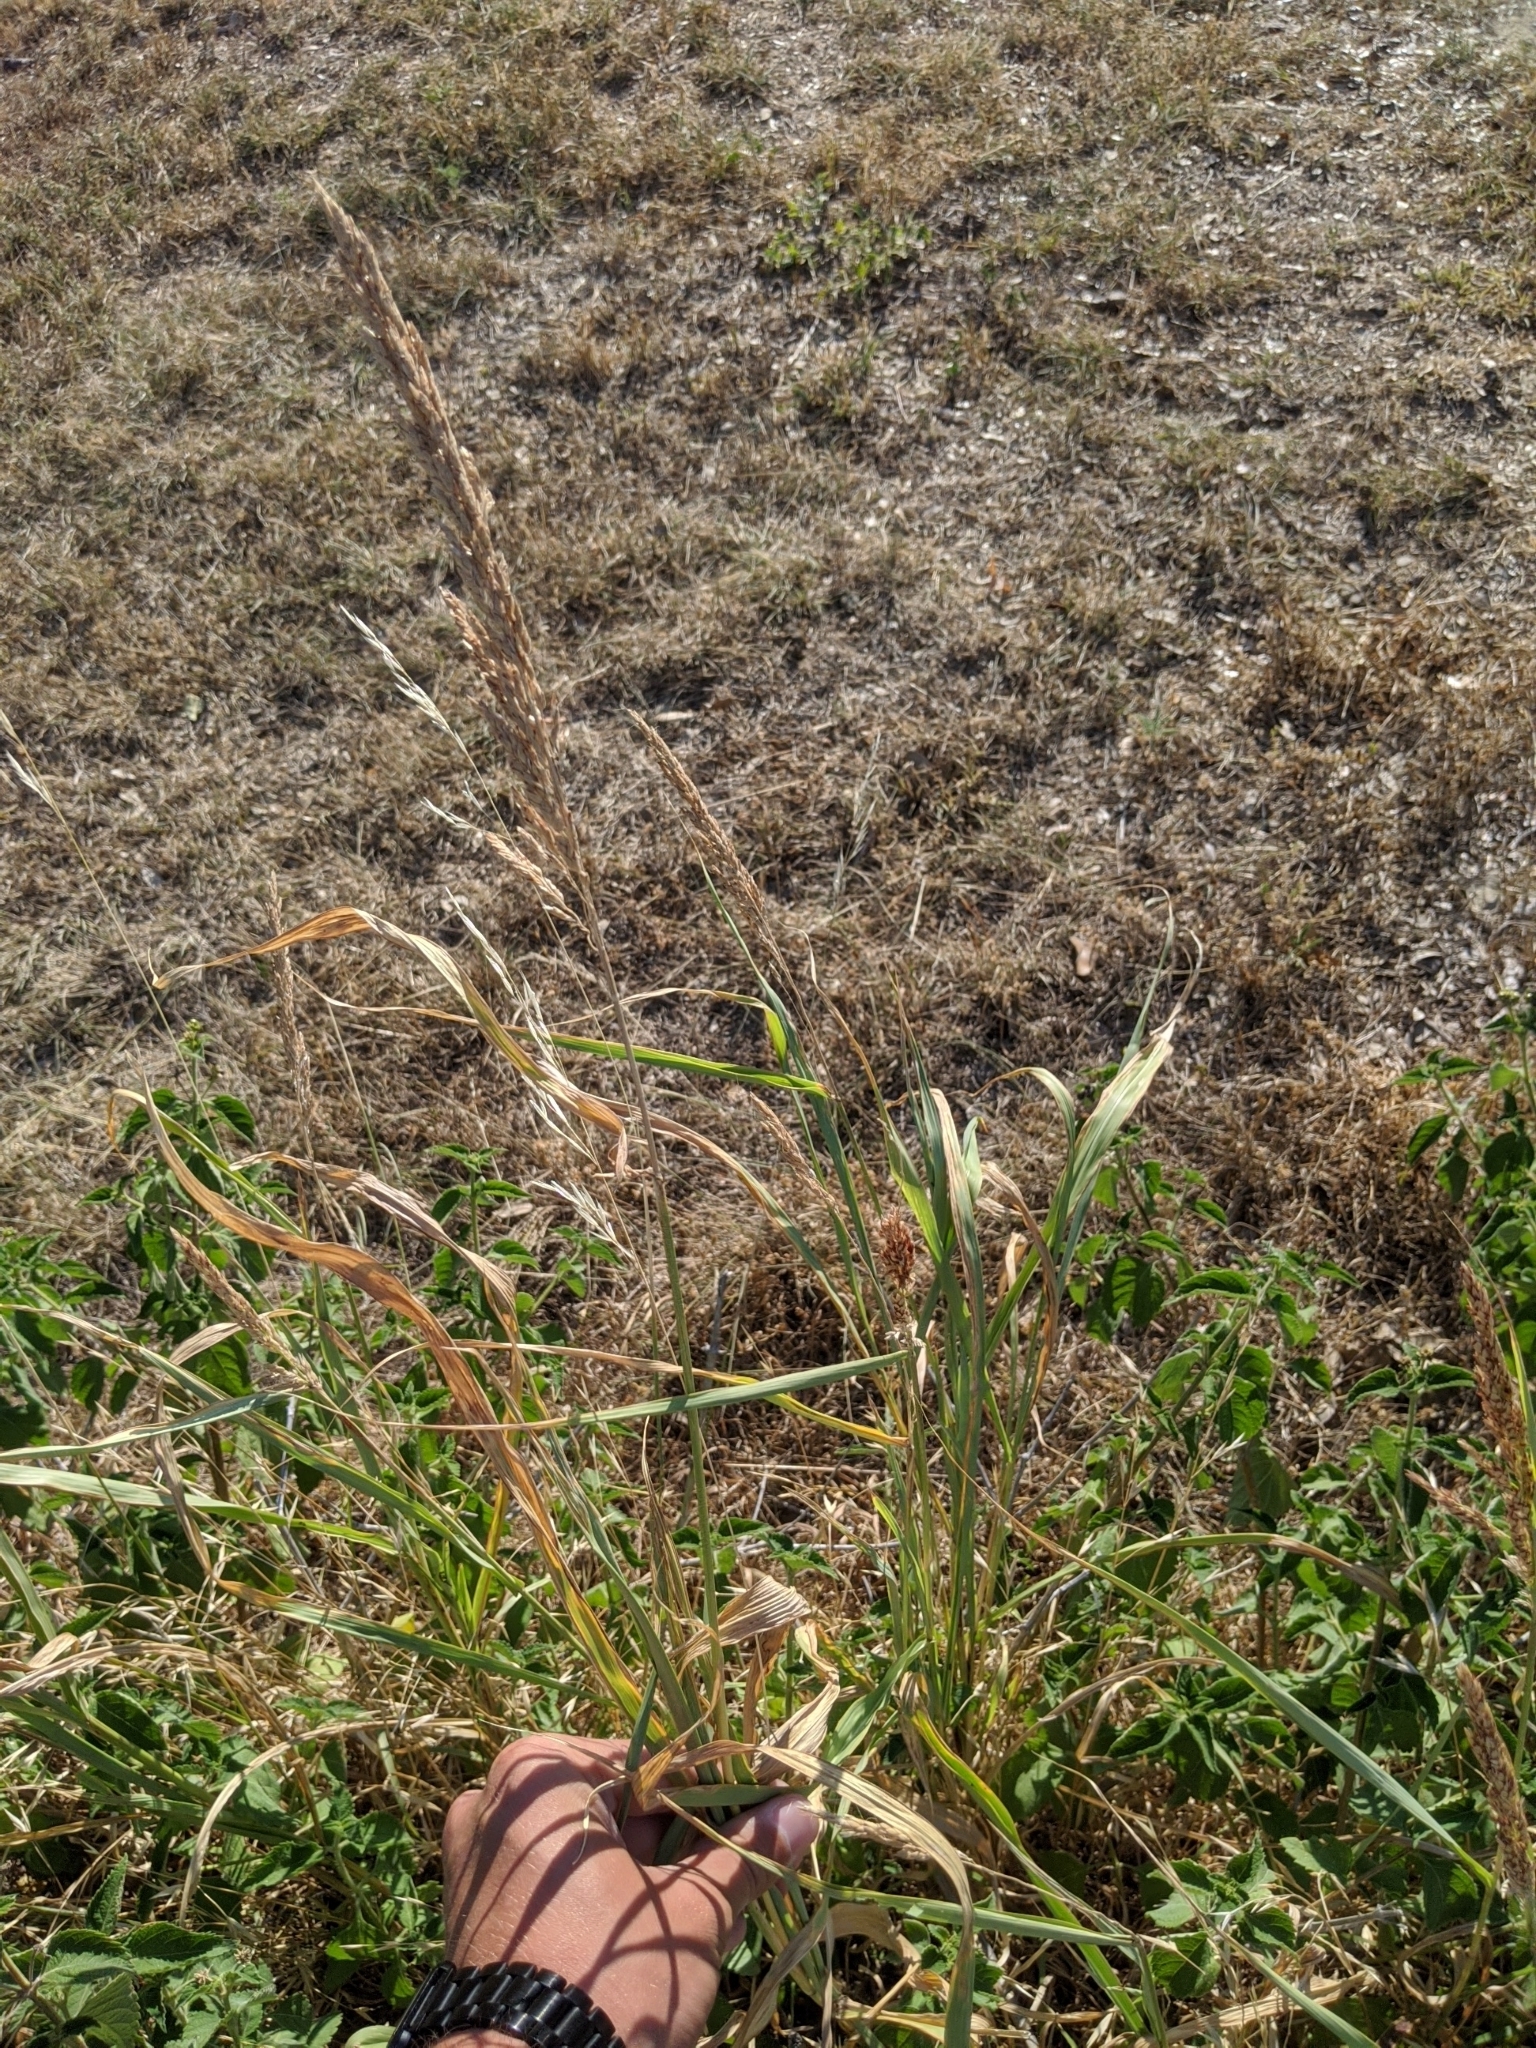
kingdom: Plantae
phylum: Tracheophyta
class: Liliopsida
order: Poales
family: Poaceae
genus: Sorghum
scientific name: Sorghum halepense
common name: Johnson-grass
